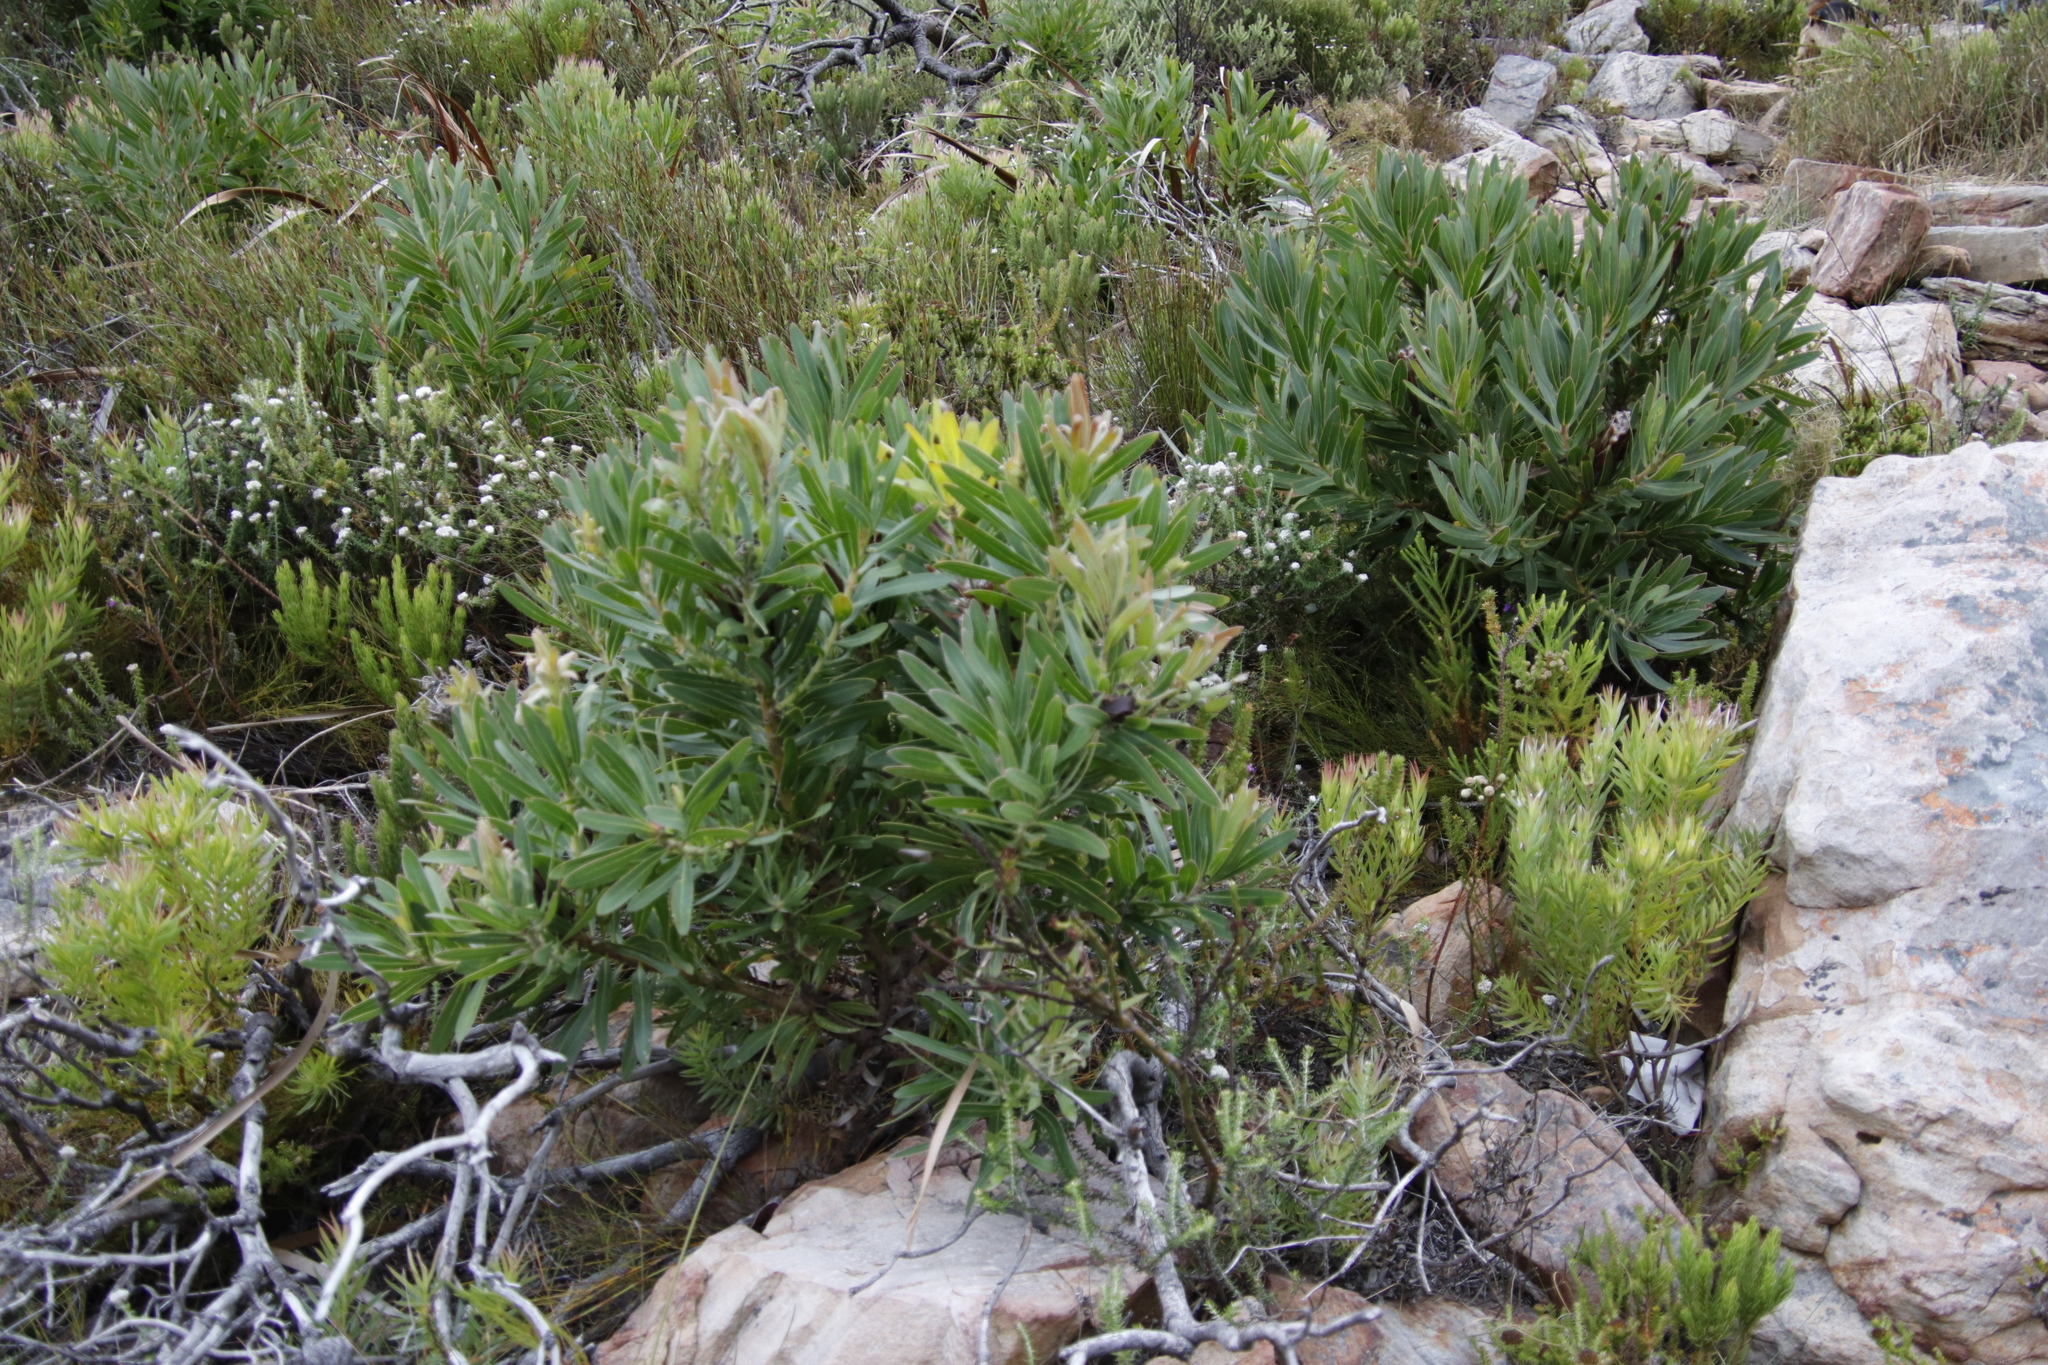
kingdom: Plantae
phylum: Tracheophyta
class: Magnoliopsida
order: Proteales
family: Proteaceae
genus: Protea
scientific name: Protea lepidocarpodendron
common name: Black-bearded protea
